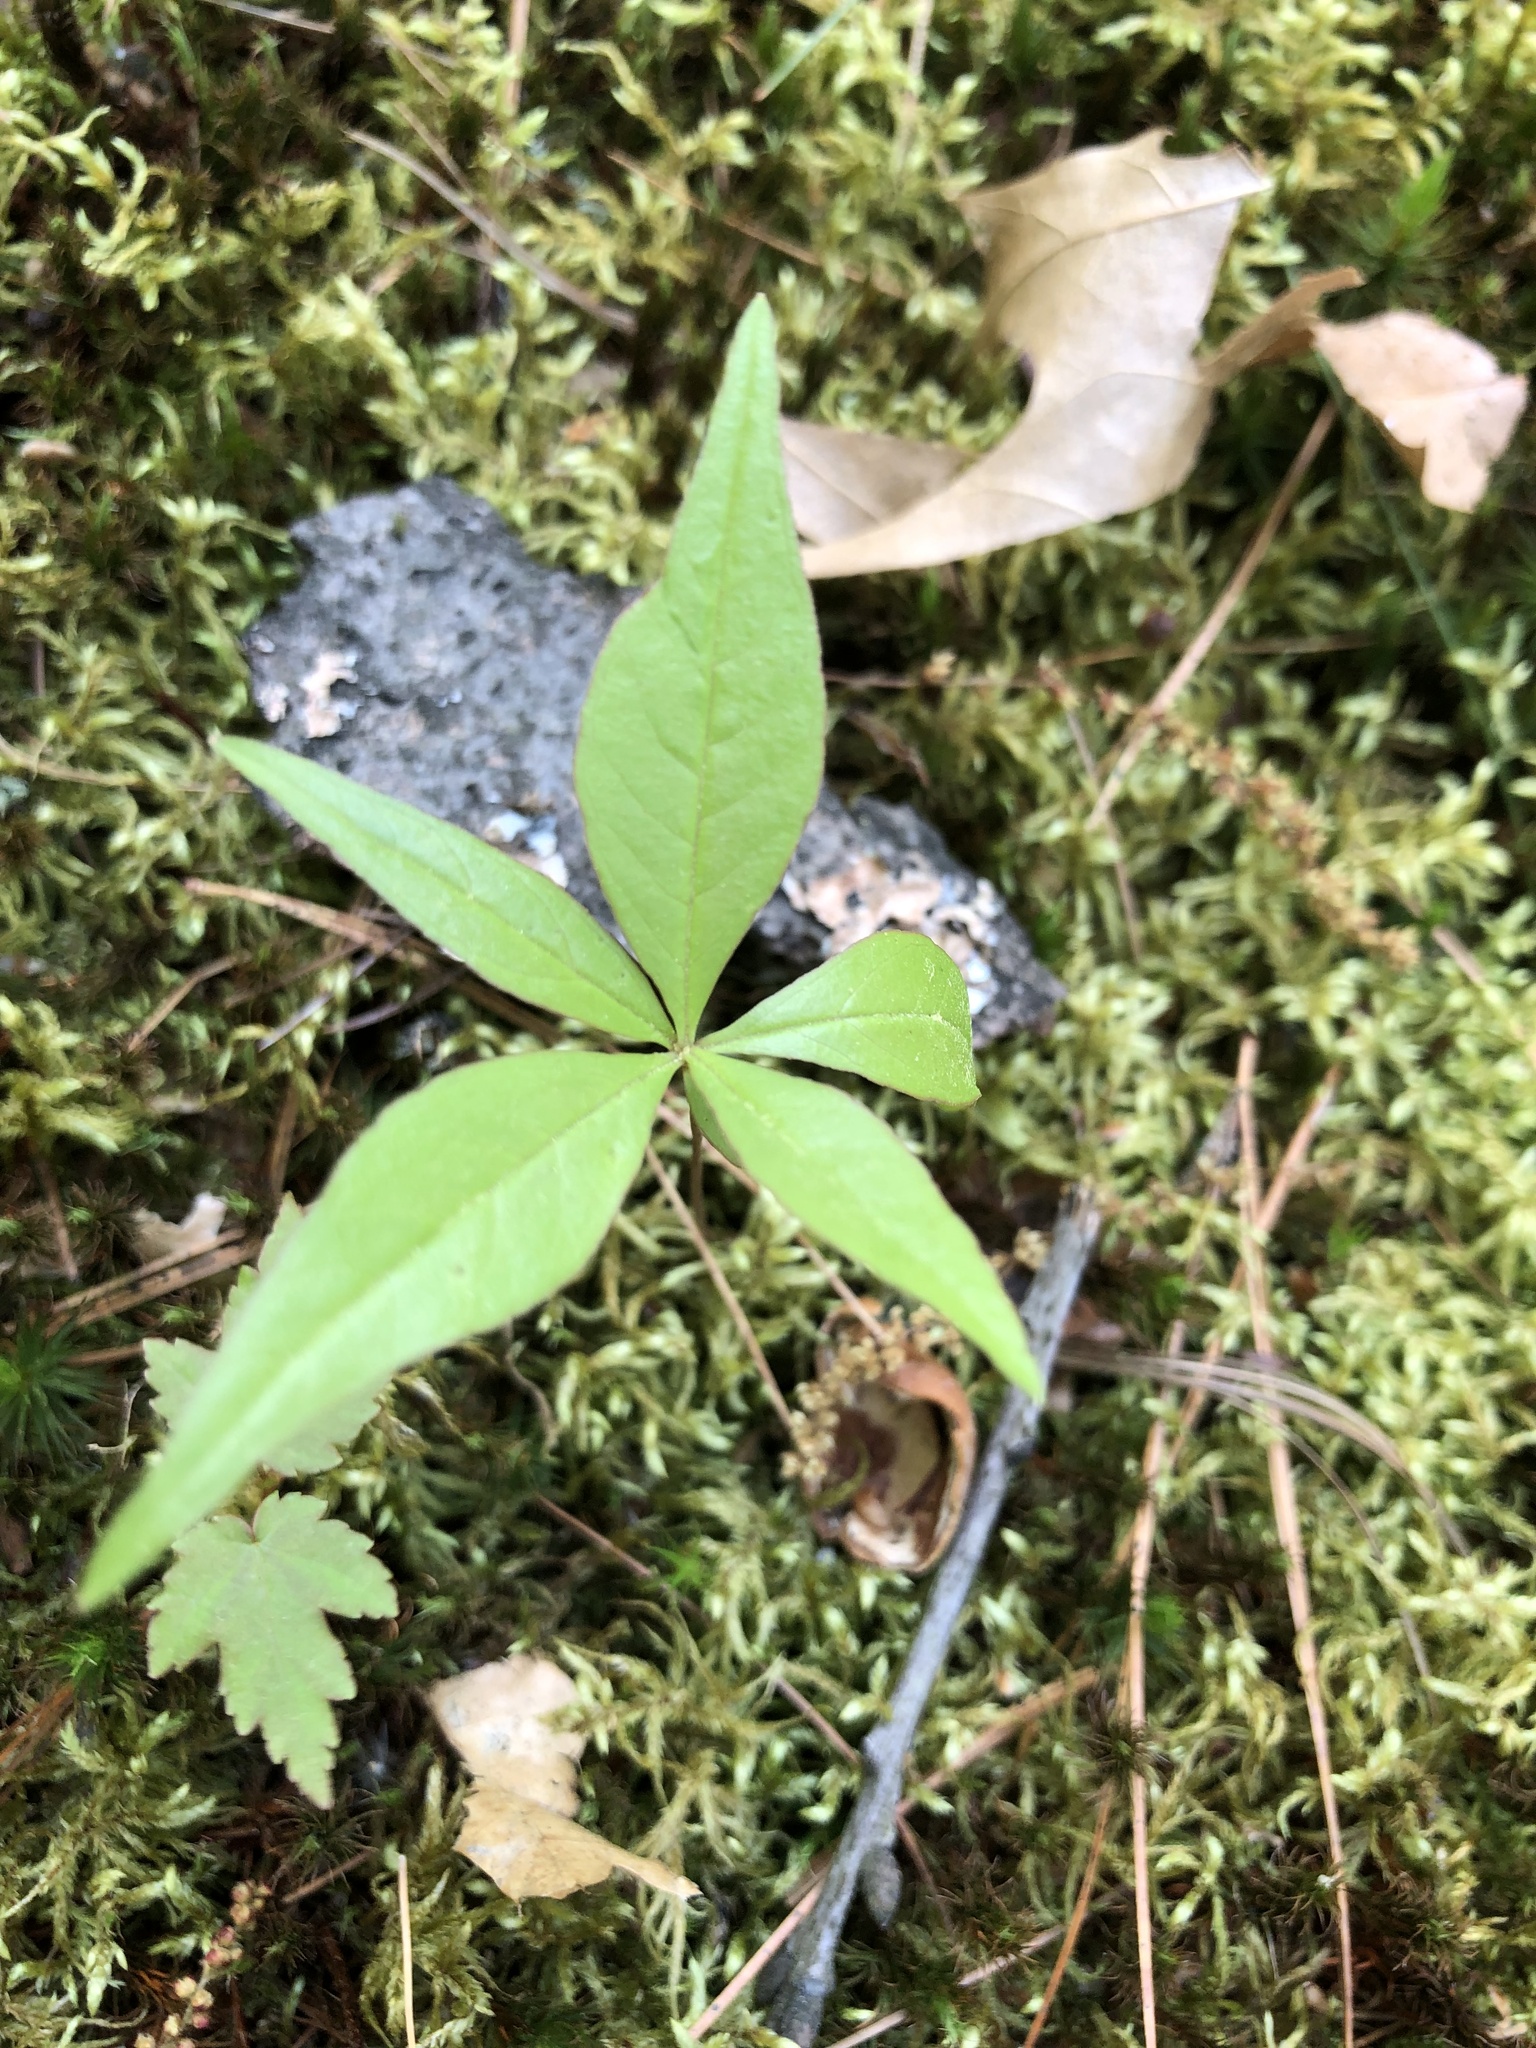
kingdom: Plantae
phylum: Tracheophyta
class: Magnoliopsida
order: Ericales
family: Primulaceae
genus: Lysimachia
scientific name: Lysimachia borealis
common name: American starflower
